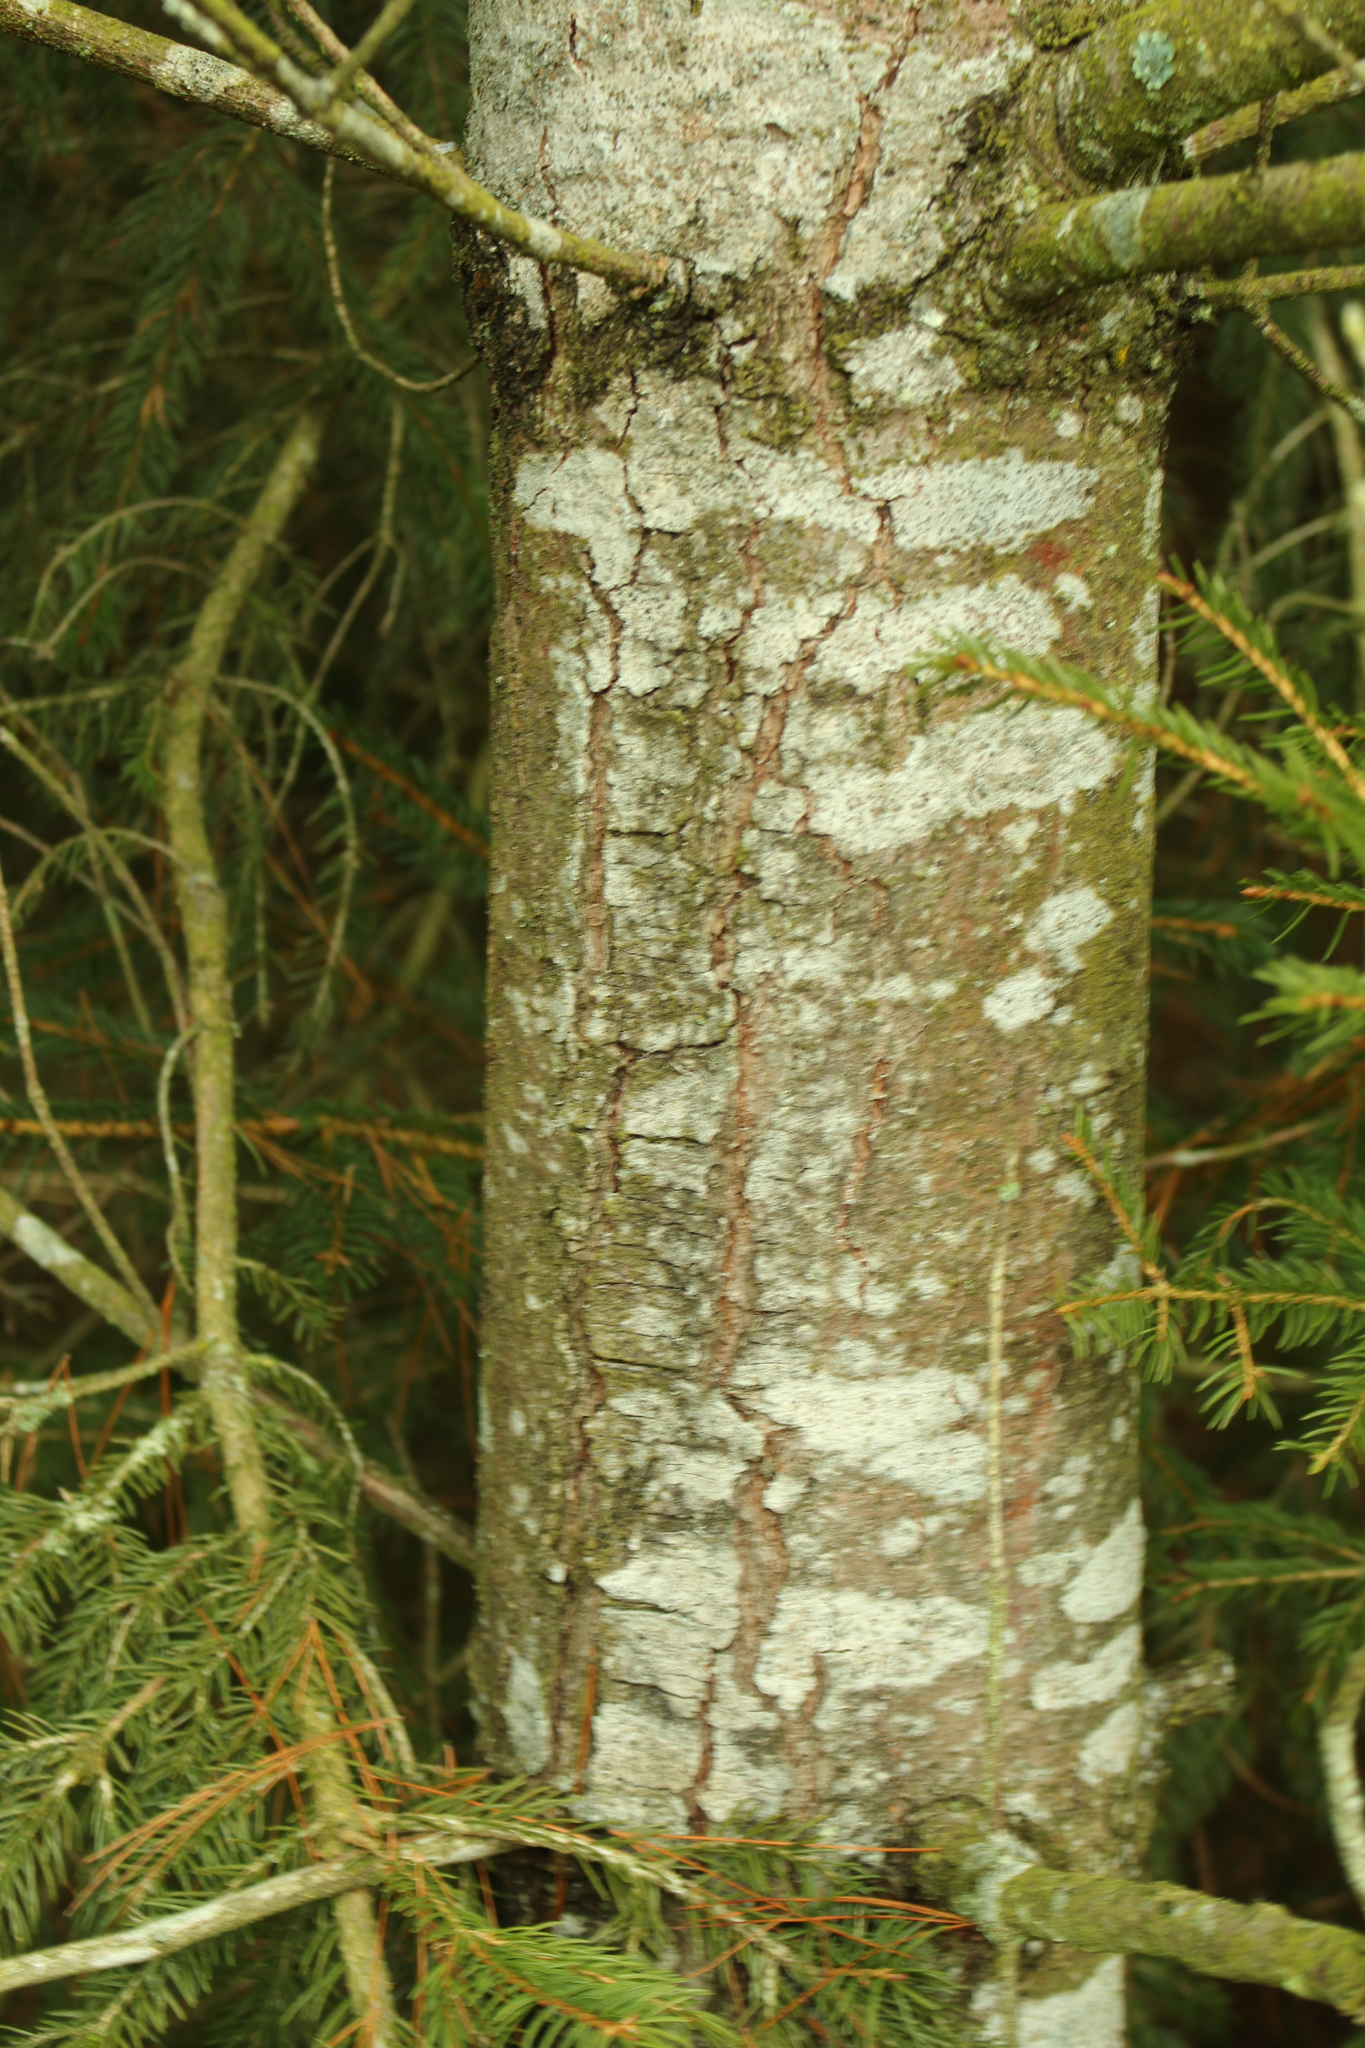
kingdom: Plantae
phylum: Tracheophyta
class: Pinopsida
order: Pinales
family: Pinaceae
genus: Pinus
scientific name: Pinus strobus
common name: Weymouth pine
